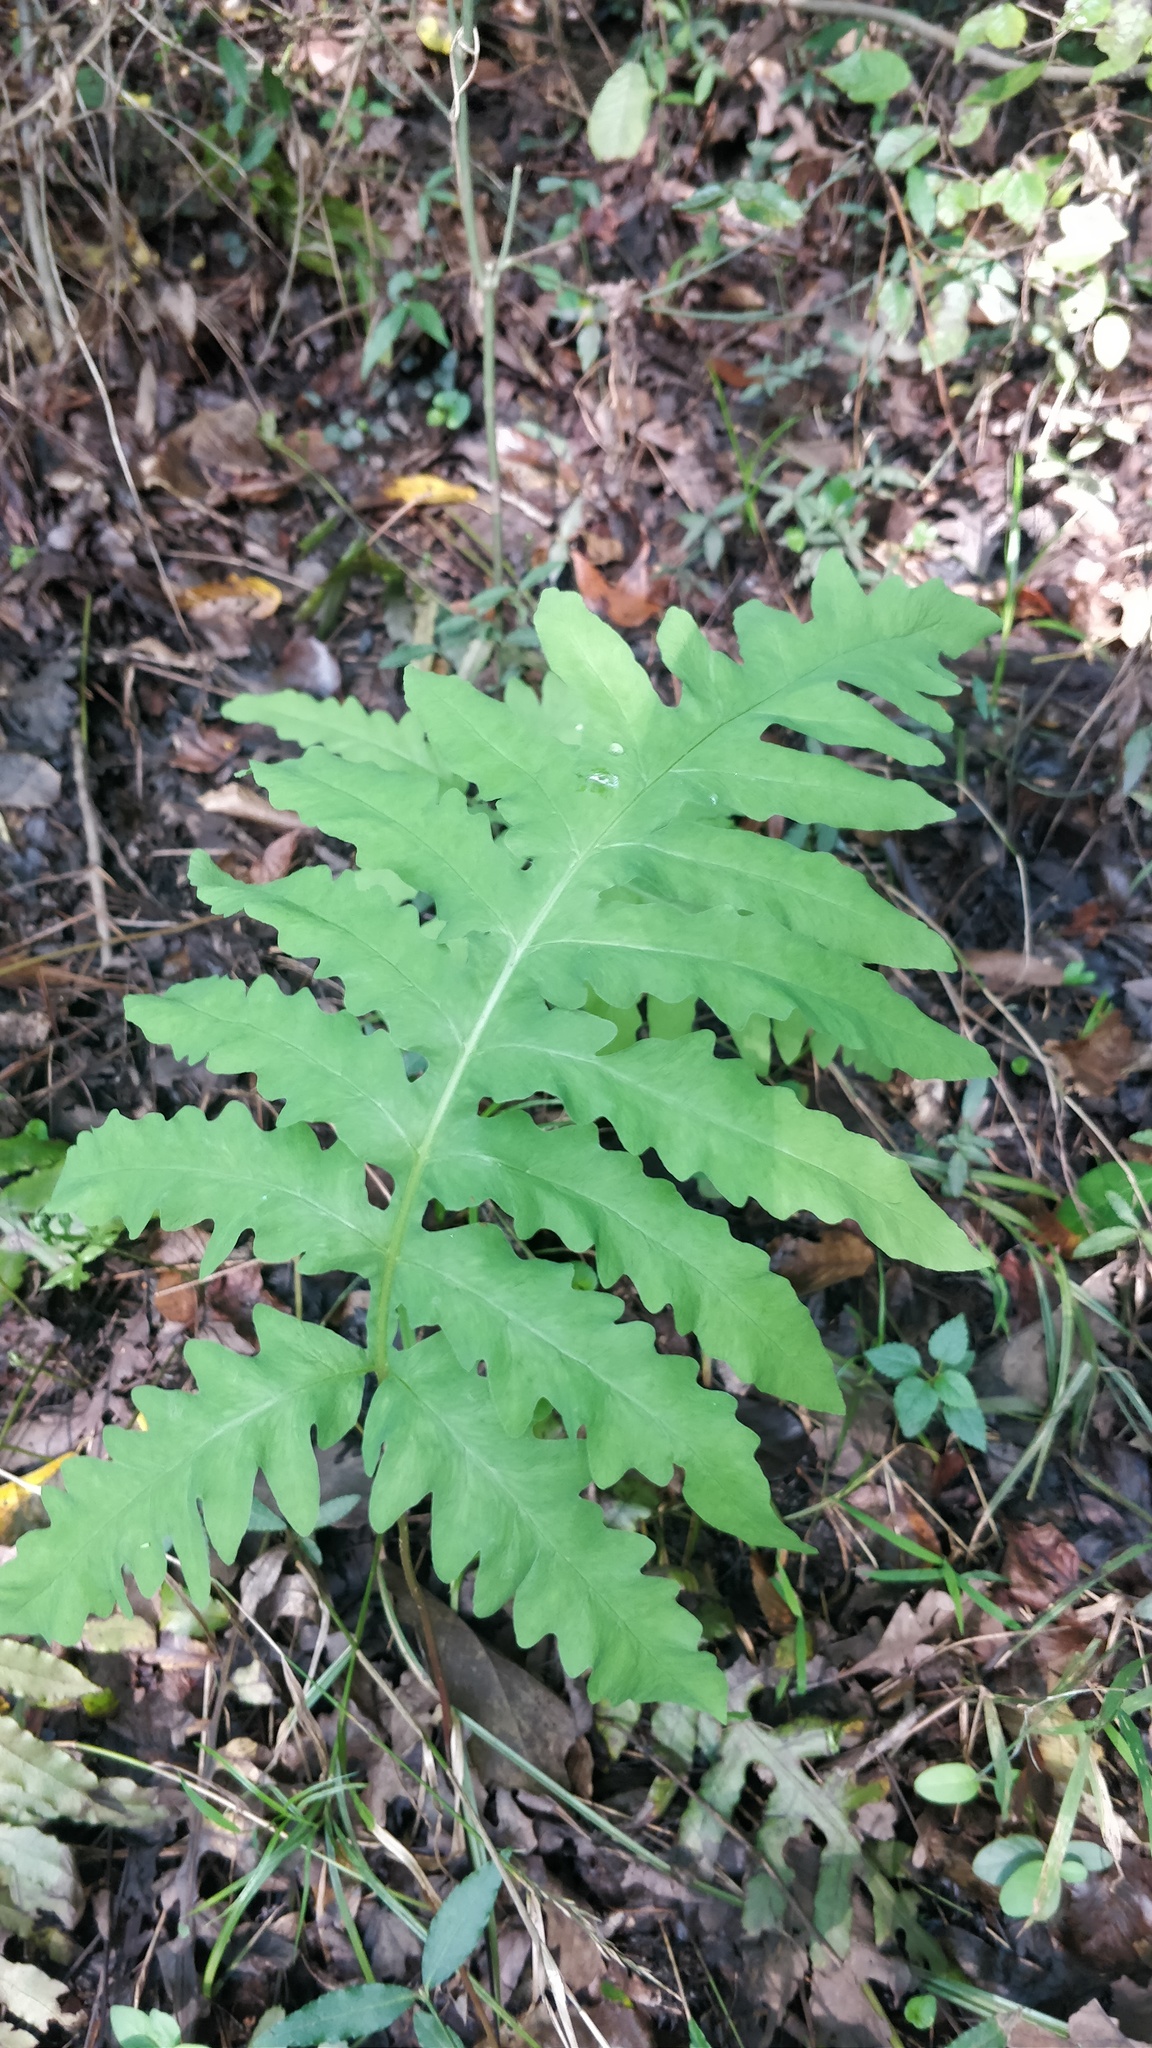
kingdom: Plantae
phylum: Tracheophyta
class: Polypodiopsida
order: Polypodiales
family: Onocleaceae
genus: Onoclea
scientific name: Onoclea sensibilis
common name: Sensitive fern
